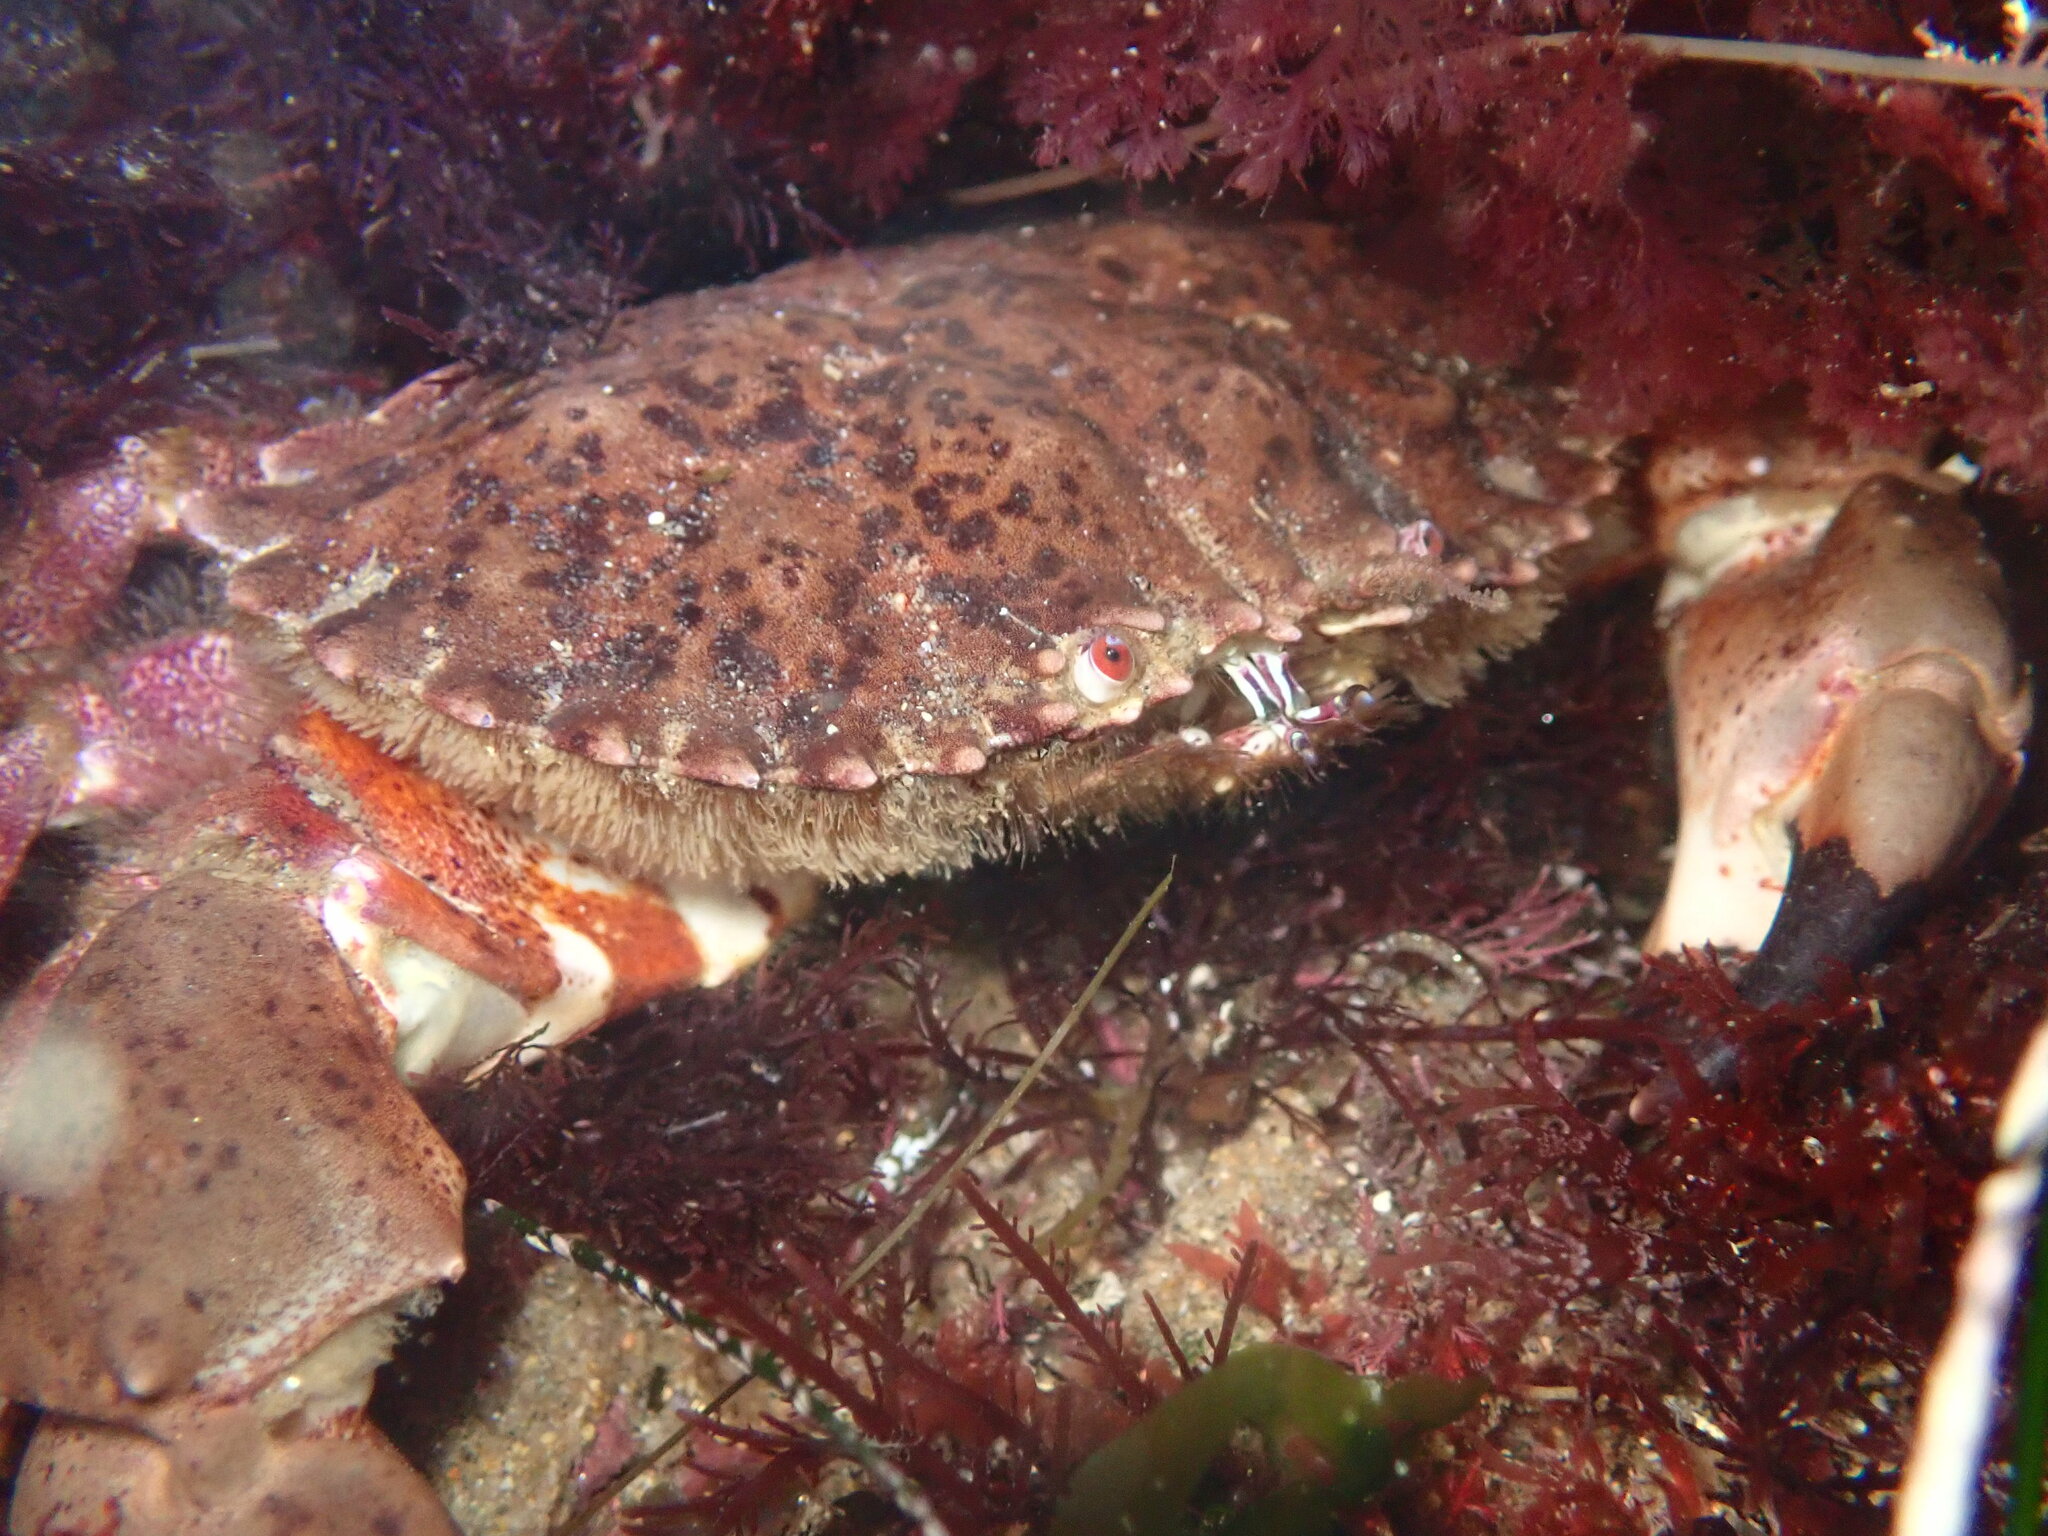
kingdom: Animalia
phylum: Arthropoda
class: Malacostraca
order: Decapoda
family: Cancridae
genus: Romaleon
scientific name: Romaleon antennarium
